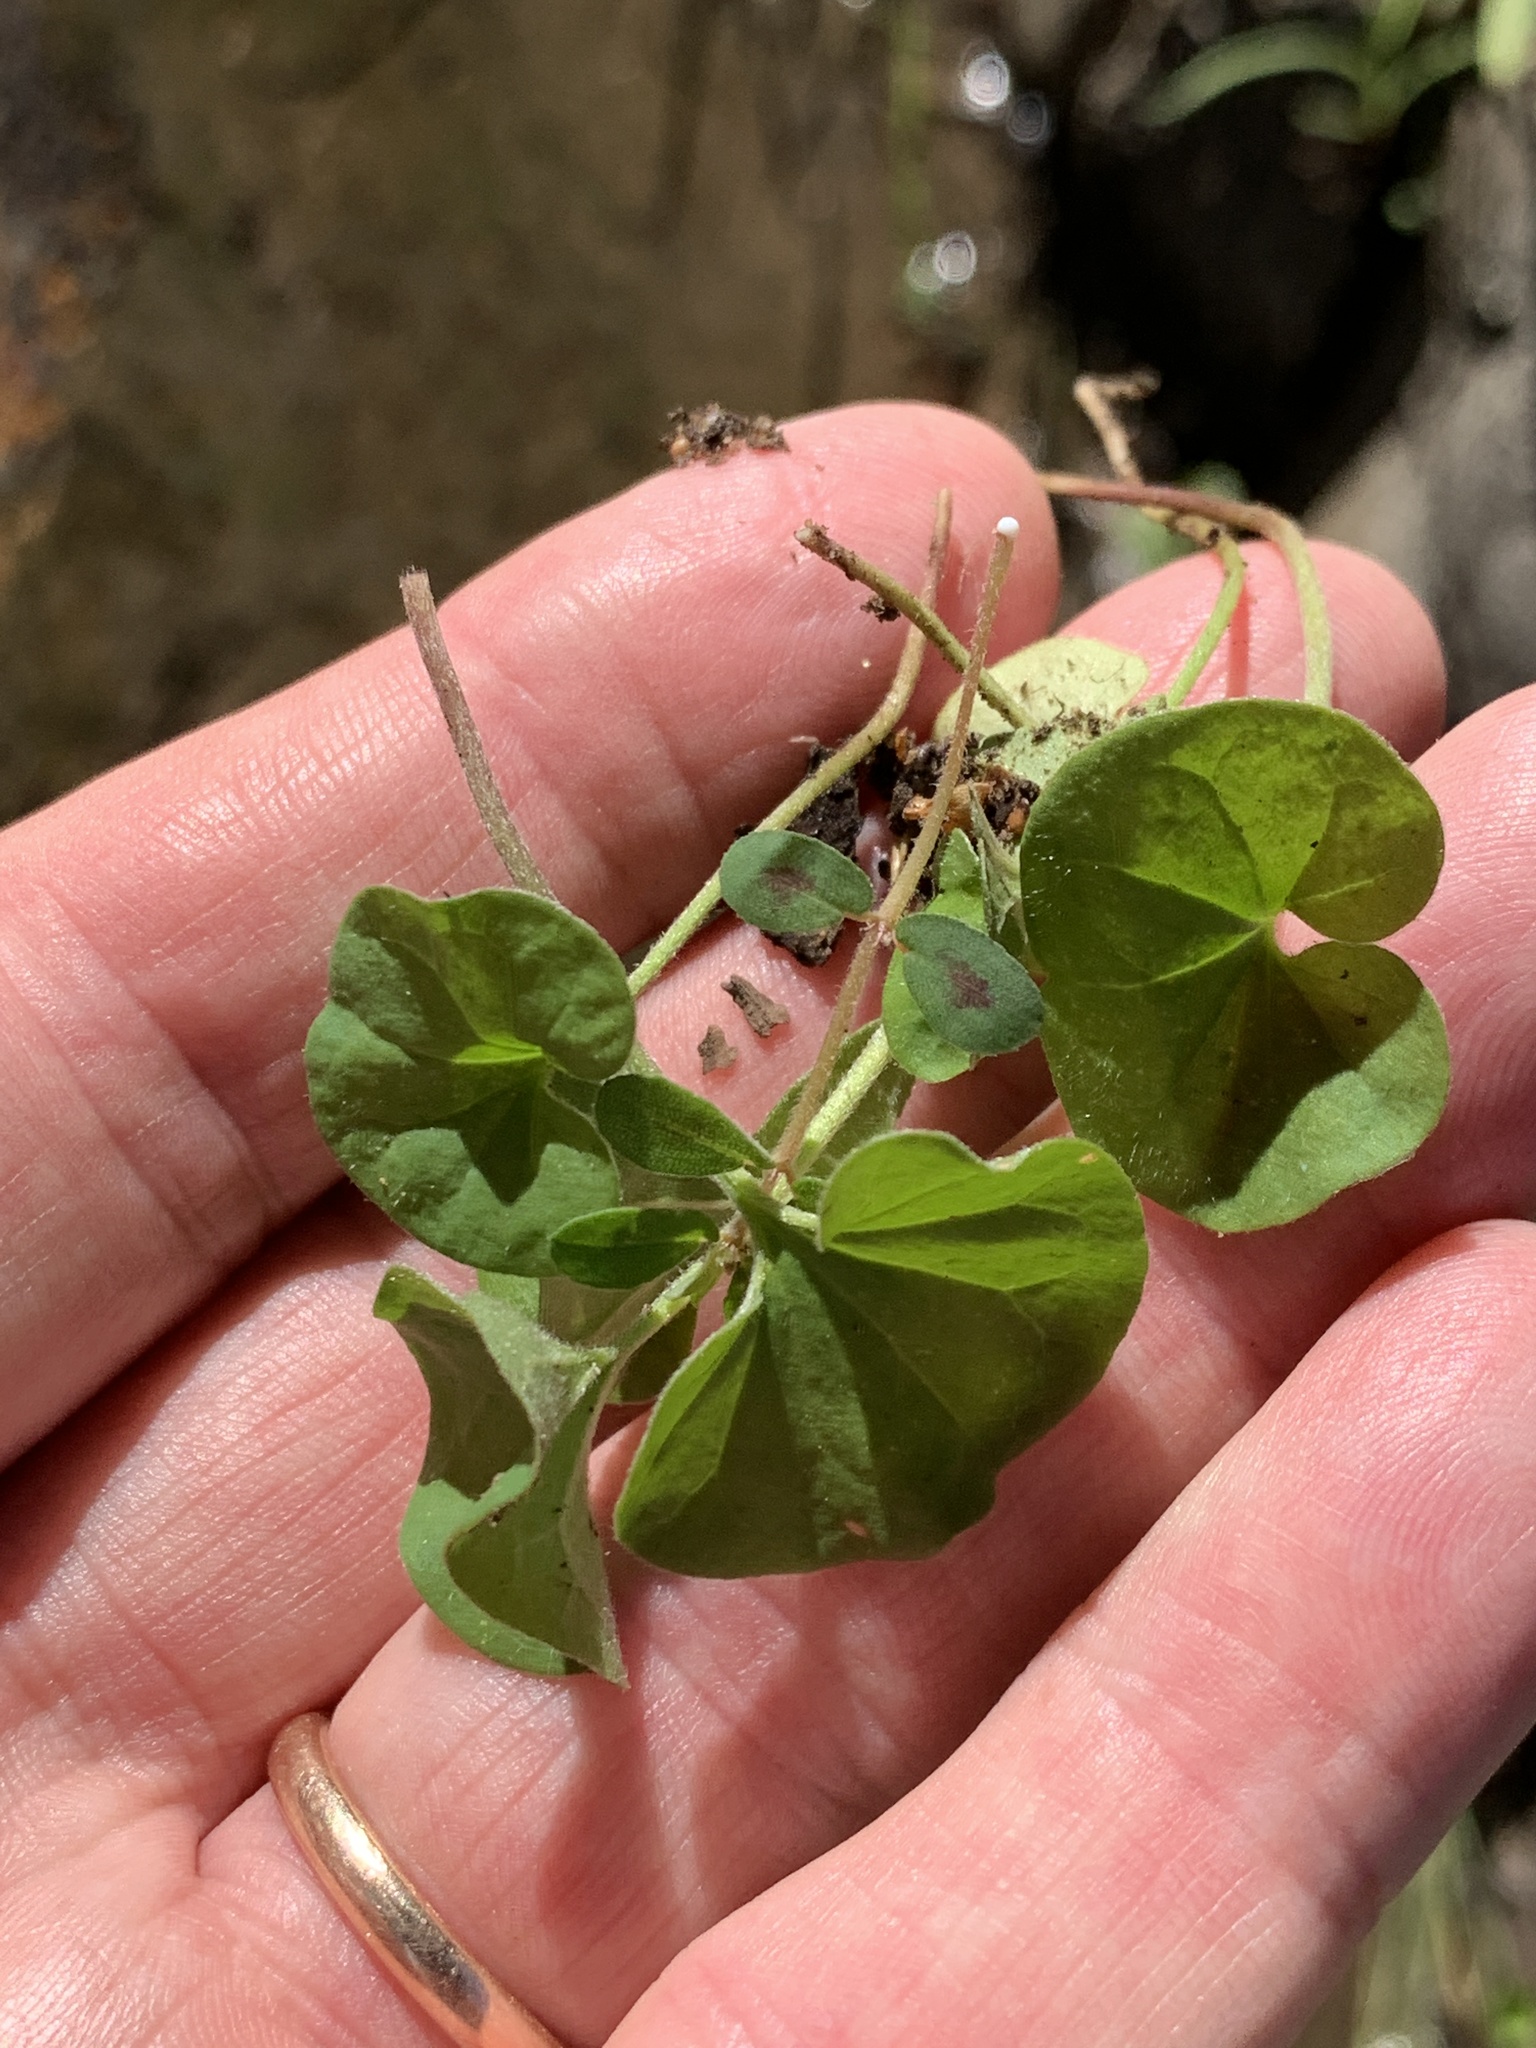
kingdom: Plantae
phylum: Tracheophyta
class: Magnoliopsida
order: Solanales
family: Convolvulaceae
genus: Dichondra
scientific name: Dichondra micrantha
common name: Kidneyweed
